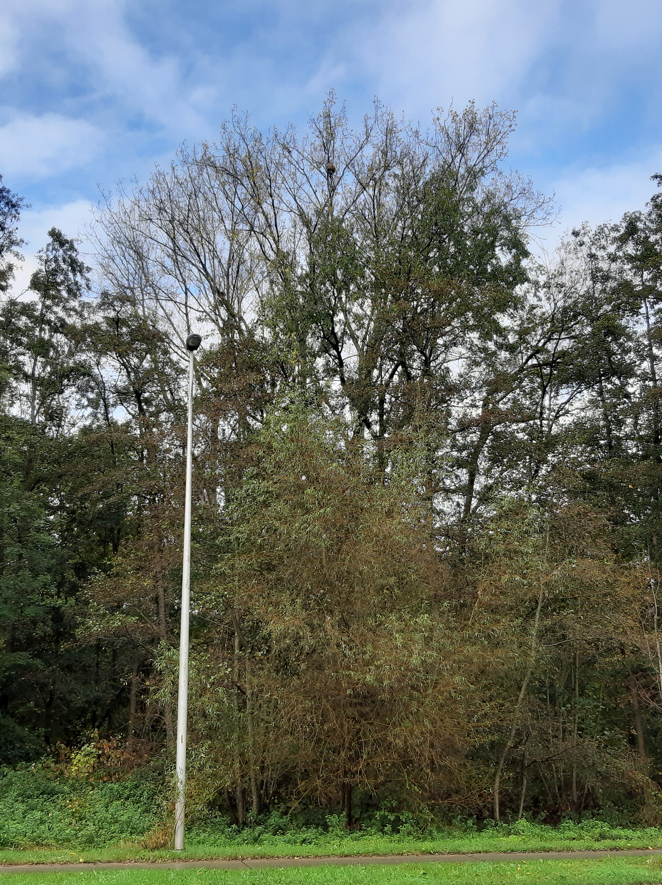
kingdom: Animalia
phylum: Arthropoda
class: Insecta
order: Hymenoptera
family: Vespidae
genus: Vespa
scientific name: Vespa velutina
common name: Asian hornet
